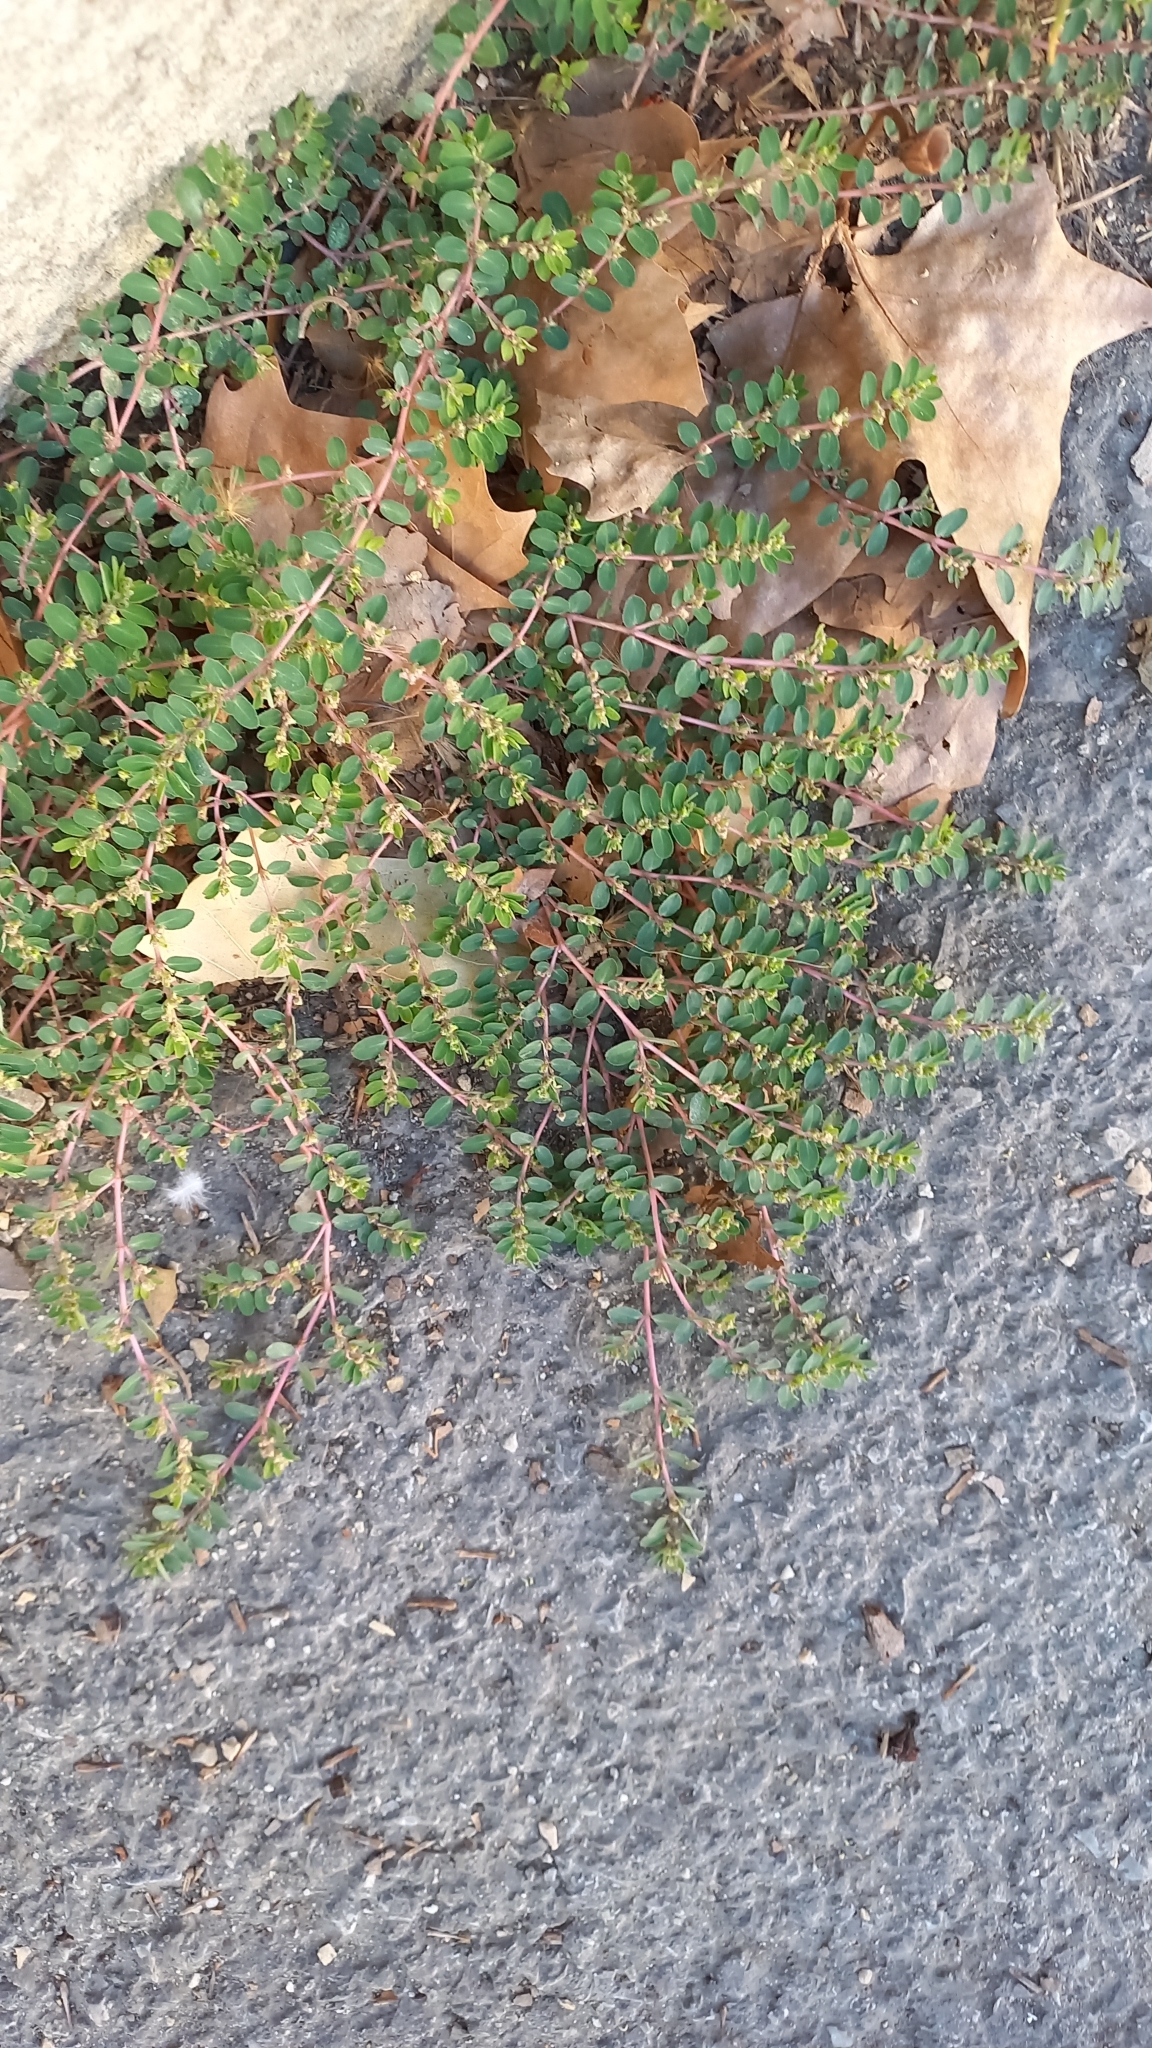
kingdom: Plantae
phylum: Tracheophyta
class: Magnoliopsida
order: Malpighiales
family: Euphorbiaceae
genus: Euphorbia
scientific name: Euphorbia prostrata
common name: Prostrate sandmat
